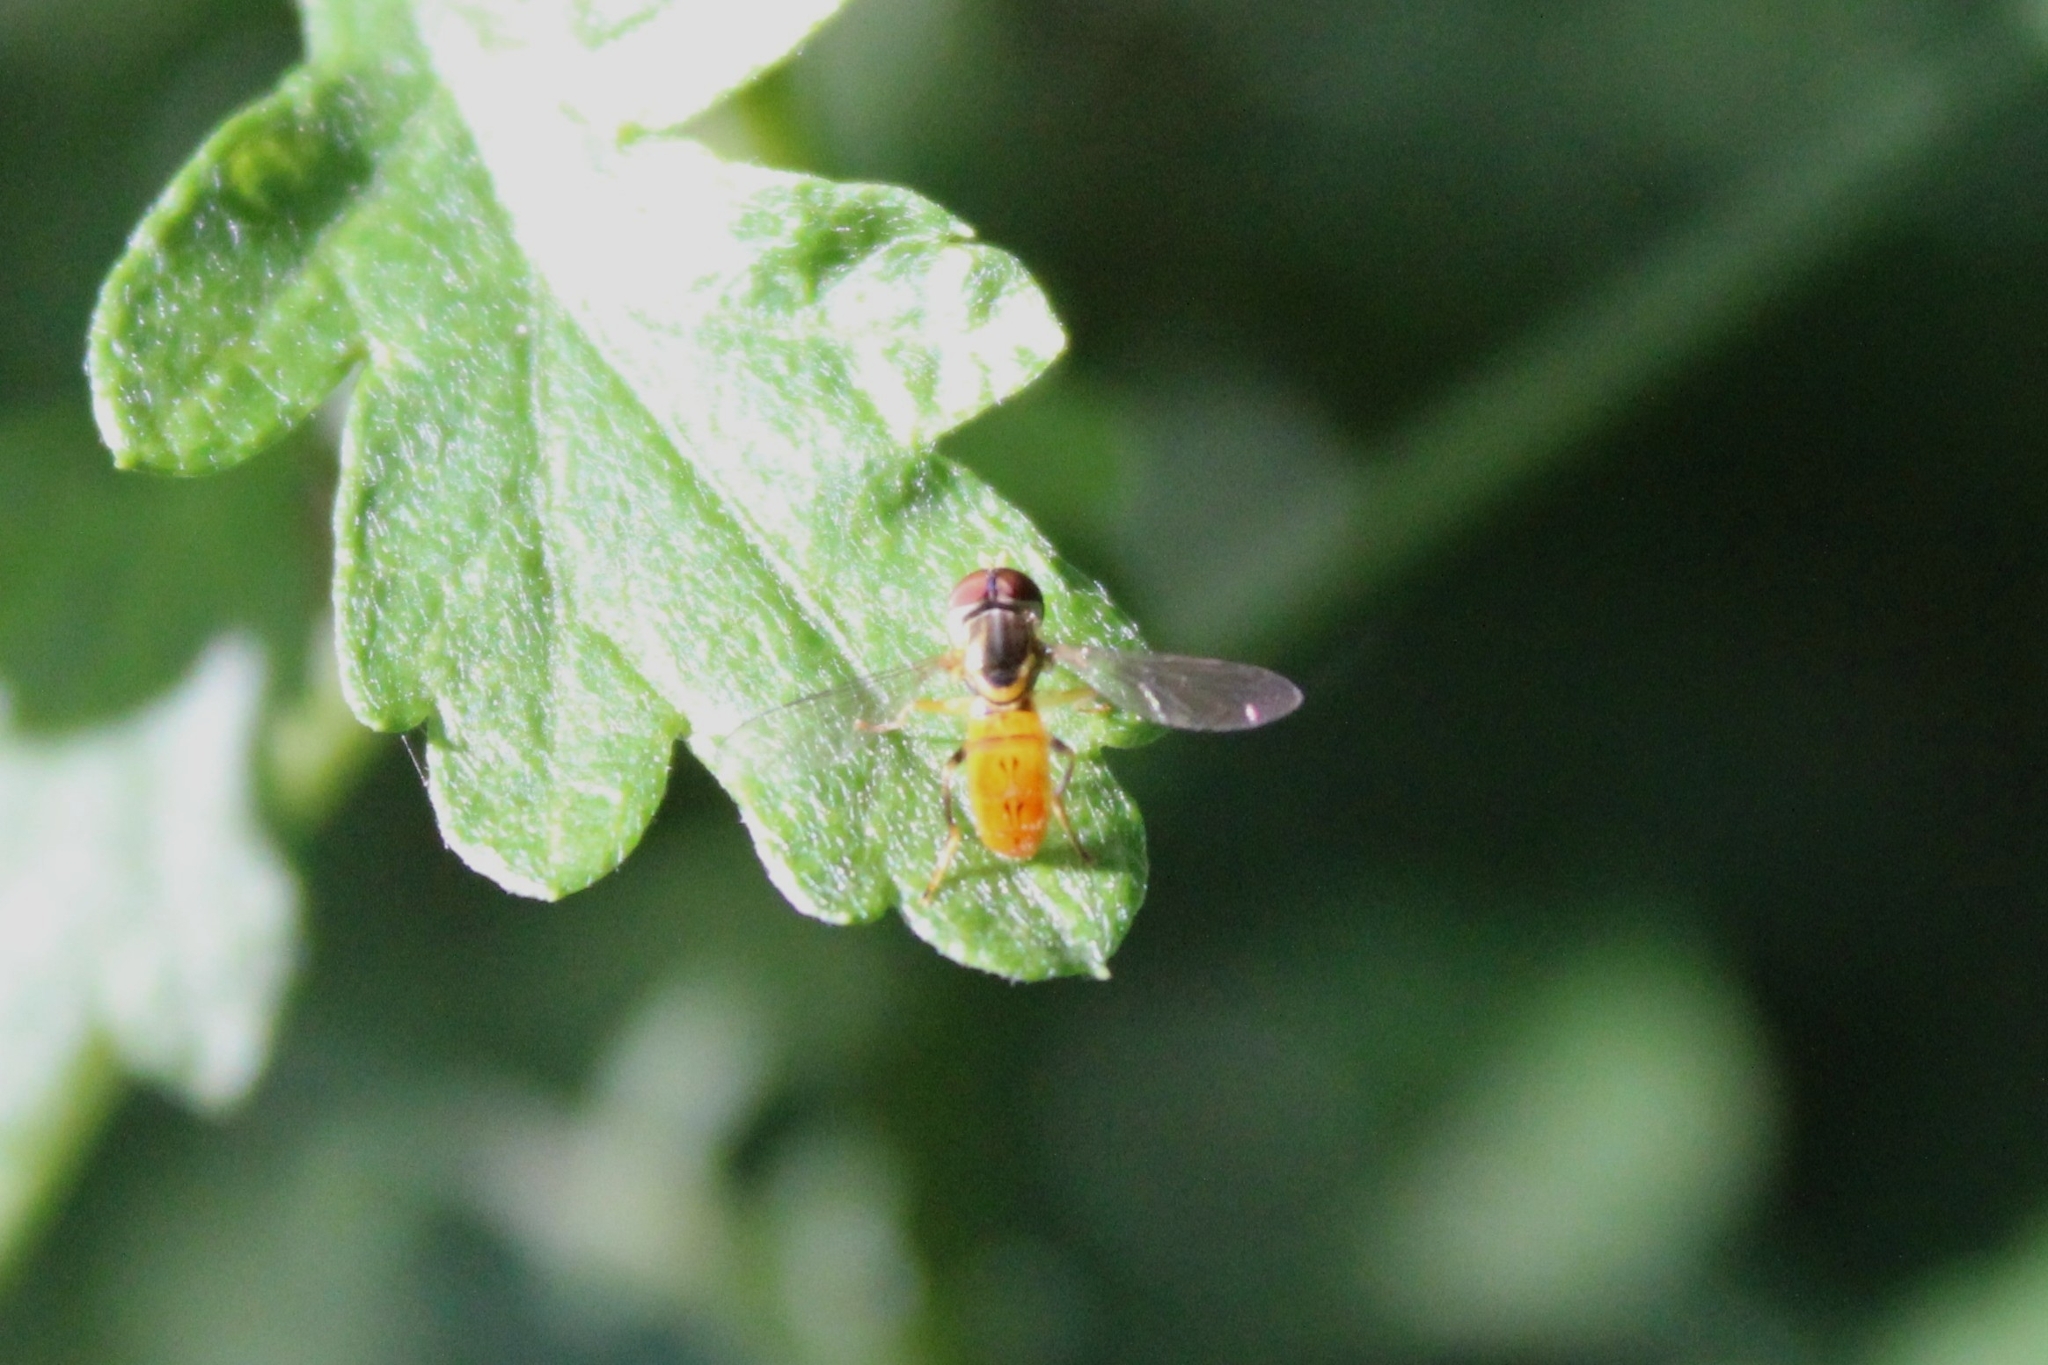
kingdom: Animalia
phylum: Arthropoda
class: Insecta
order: Diptera
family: Syrphidae
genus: Toxomerus
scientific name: Toxomerus boscii
